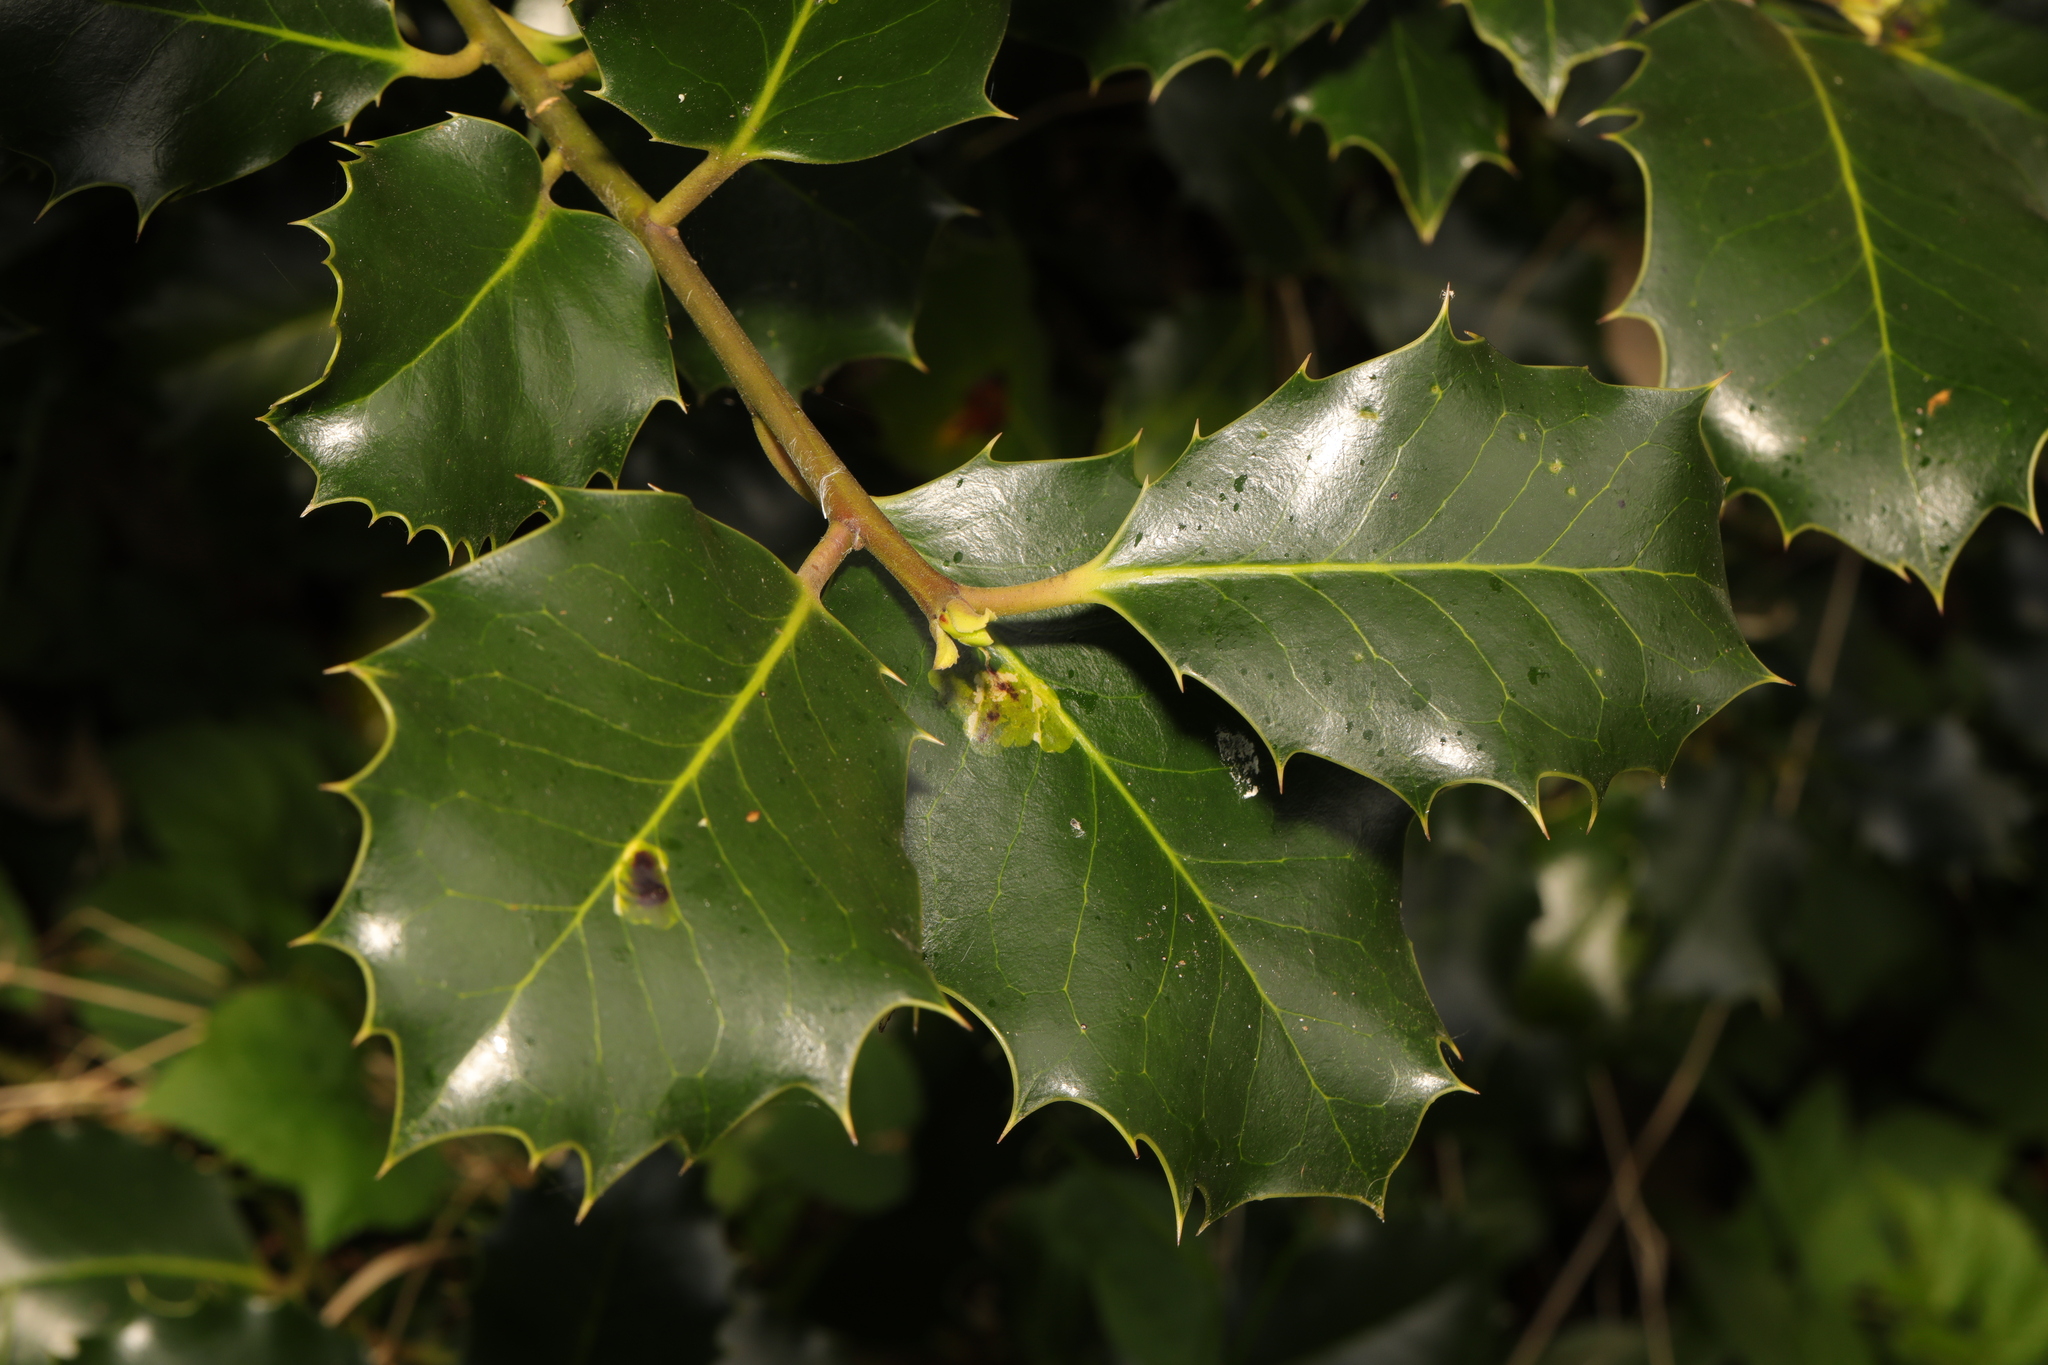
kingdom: Plantae
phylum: Tracheophyta
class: Magnoliopsida
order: Aquifoliales
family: Aquifoliaceae
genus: Ilex
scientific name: Ilex aquifolium
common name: English holly
